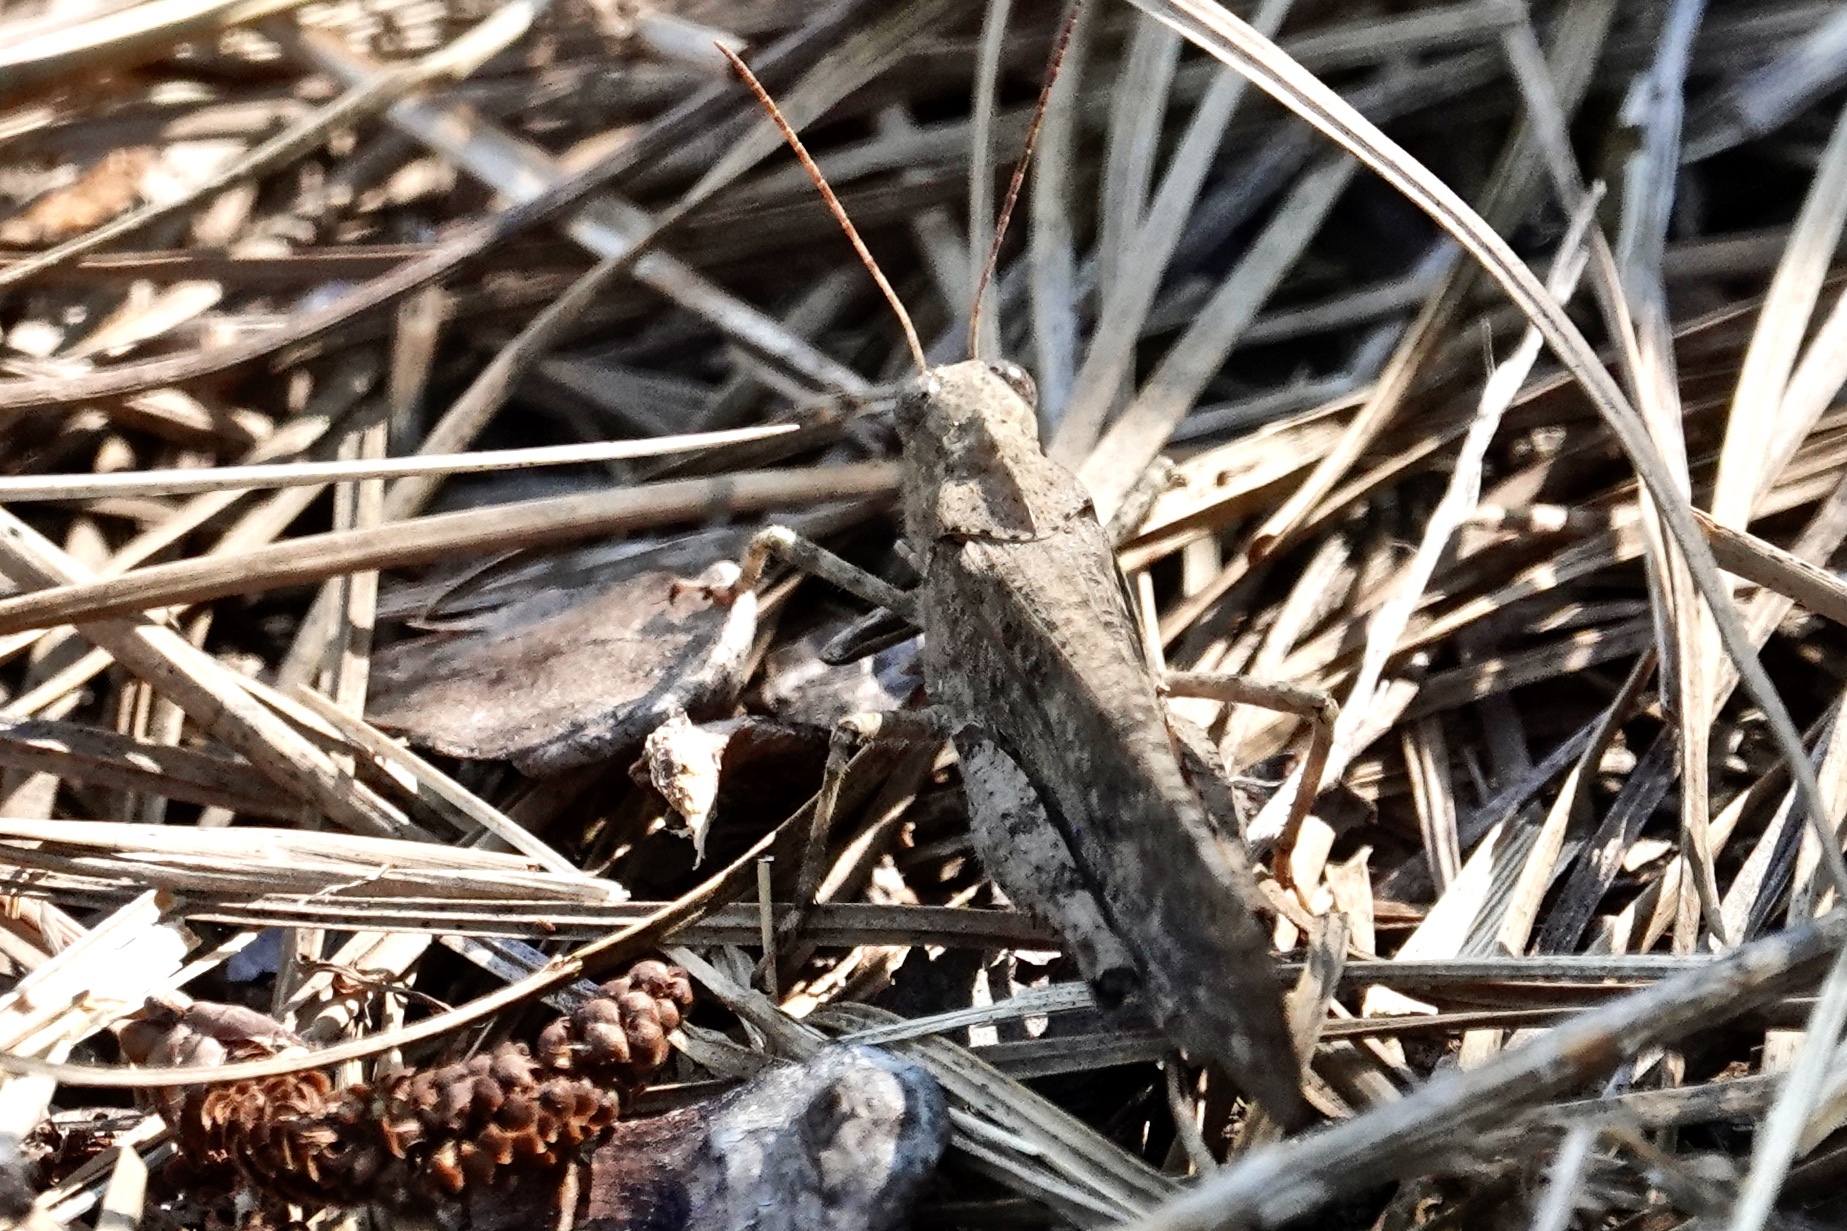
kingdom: Animalia
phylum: Arthropoda
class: Insecta
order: Orthoptera
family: Acrididae
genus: Dissosteira
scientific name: Dissosteira carolina
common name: Carolina grasshopper
